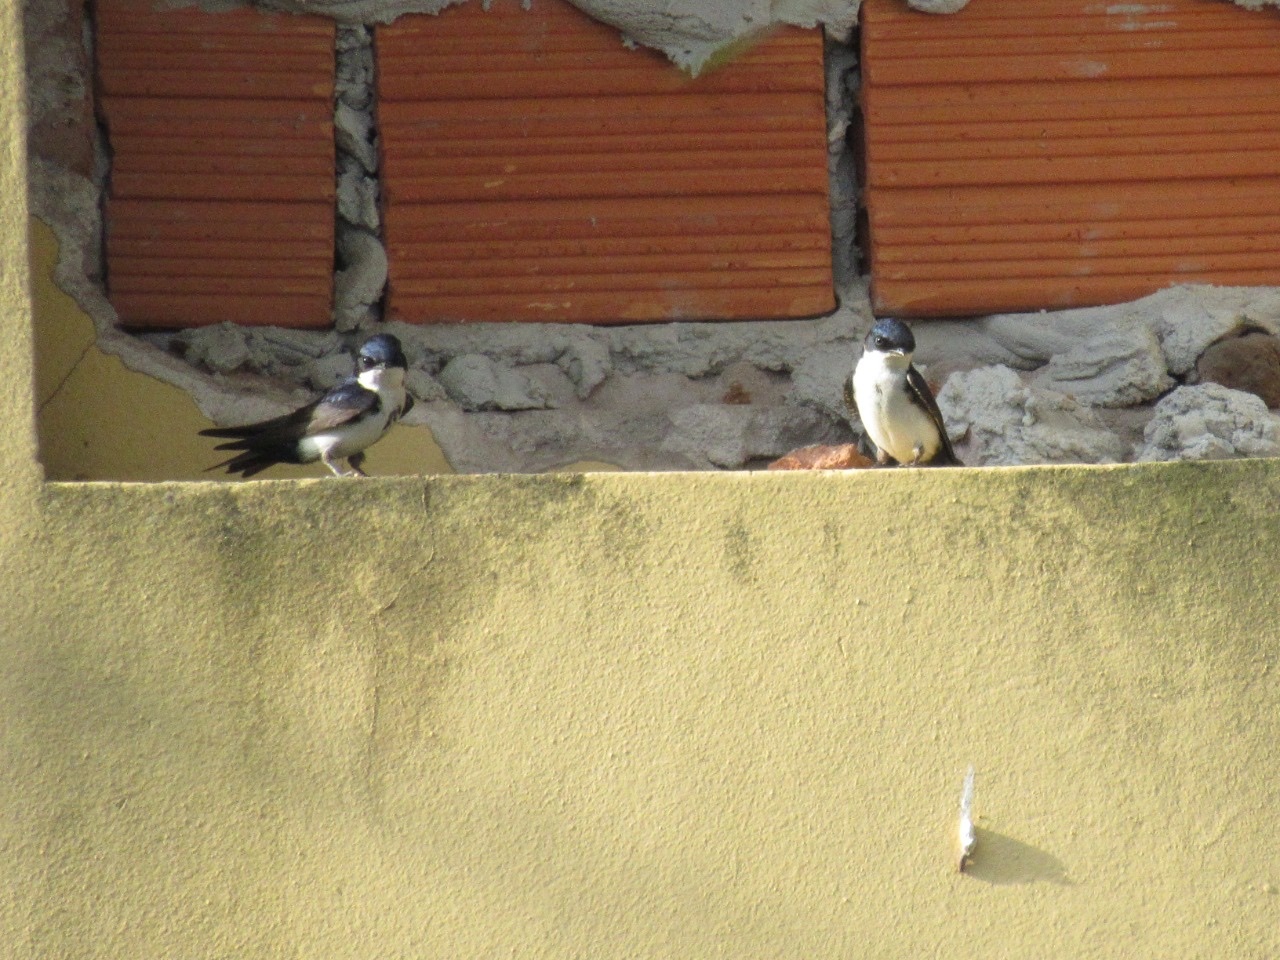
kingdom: Animalia
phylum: Chordata
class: Aves
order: Passeriformes
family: Hirundinidae
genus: Notiochelidon
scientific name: Notiochelidon cyanoleuca
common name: Blue-and-white swallow
